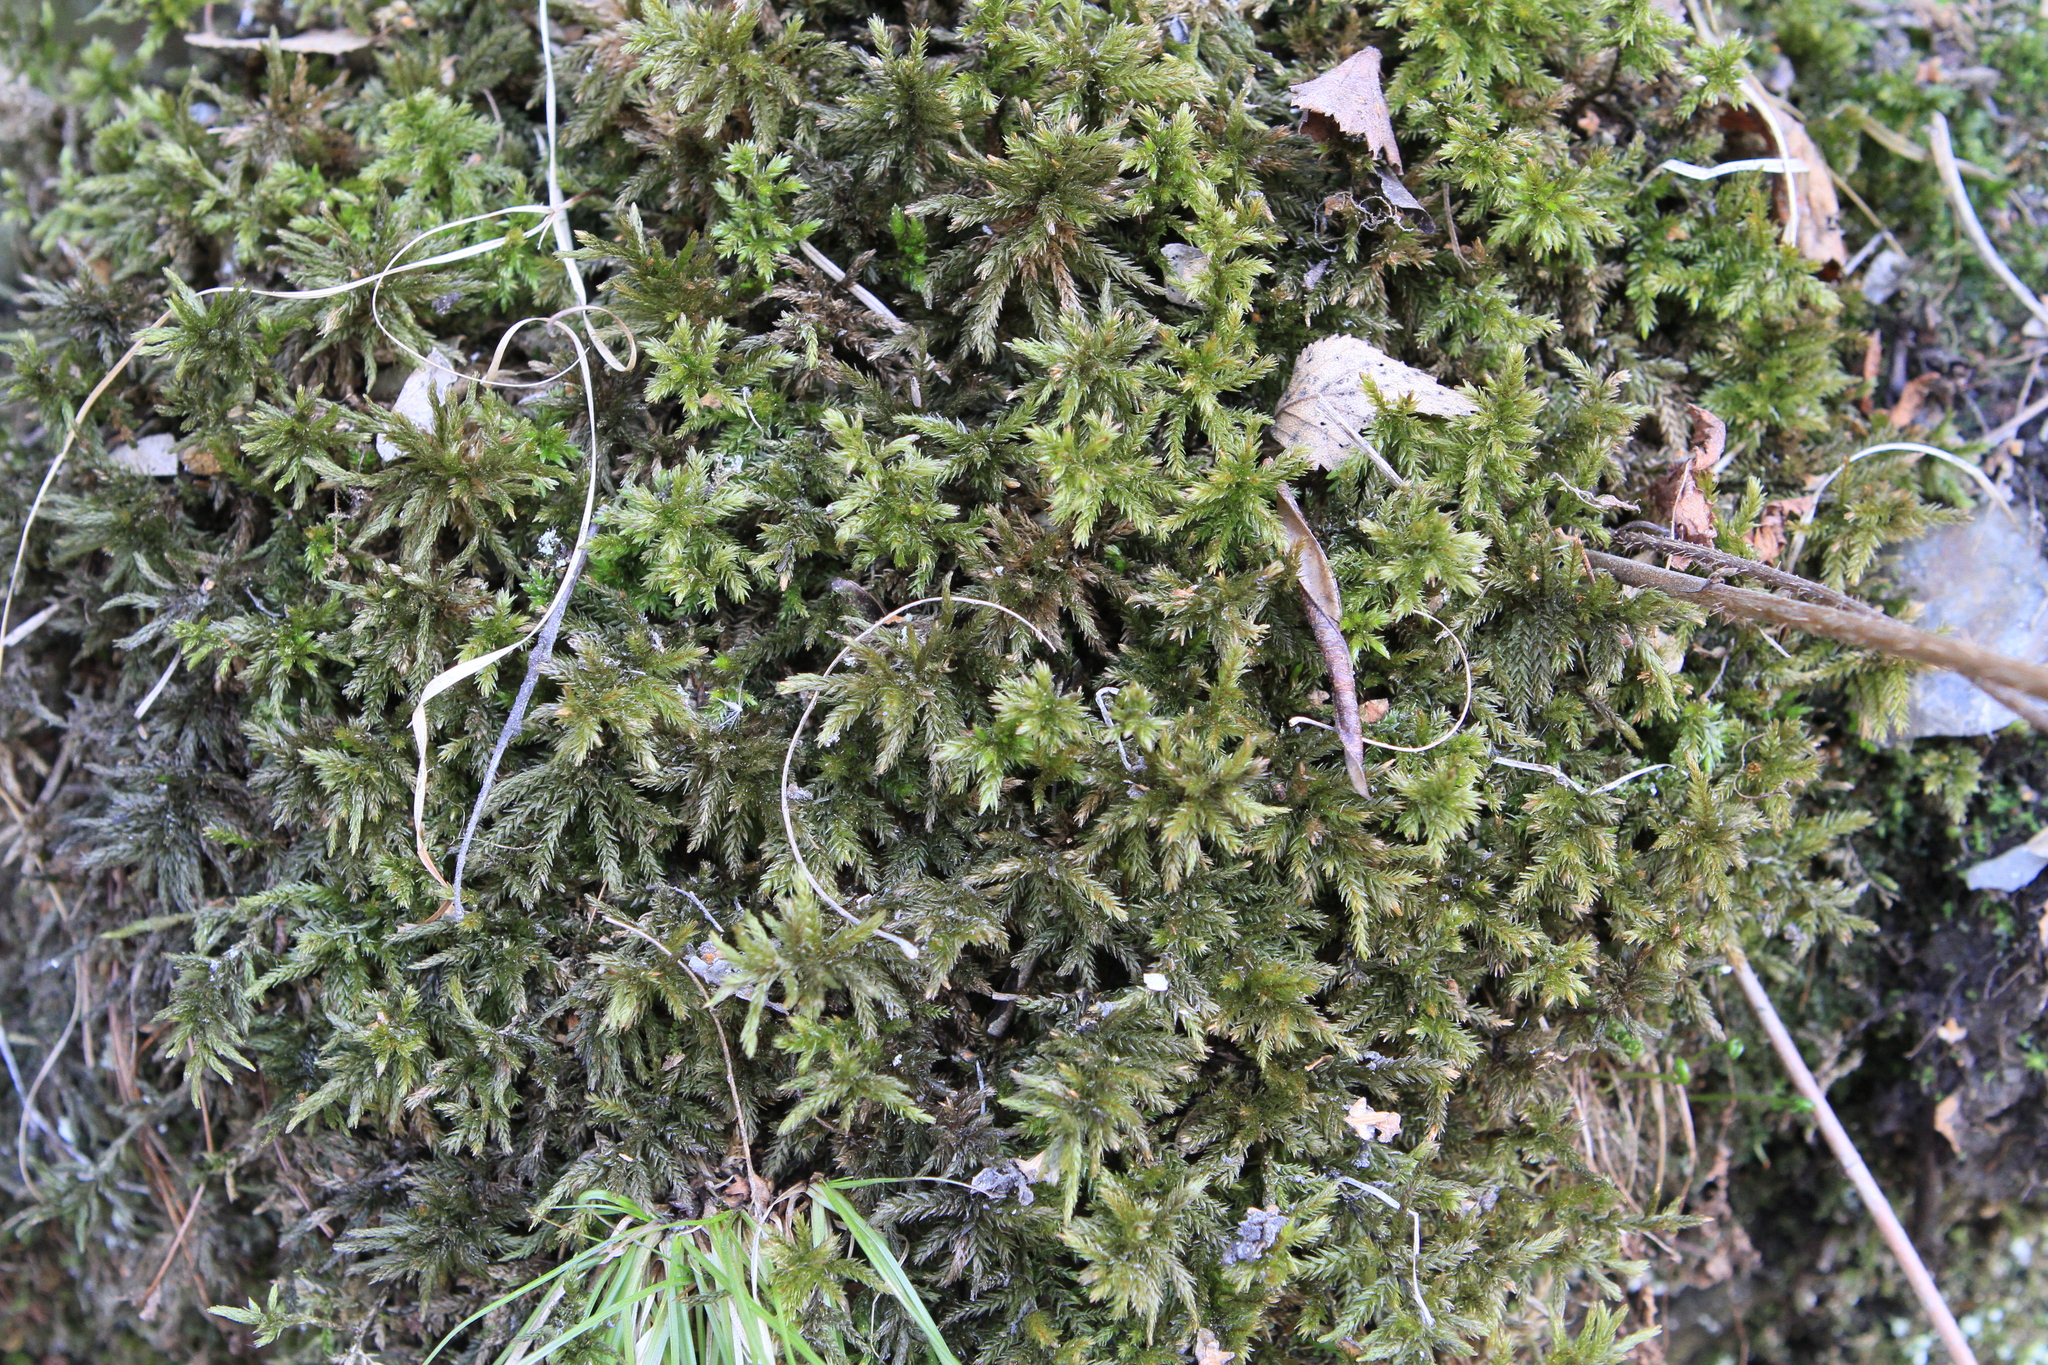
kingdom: Plantae
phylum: Bryophyta
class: Bryopsida
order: Hypnales
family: Climaciaceae
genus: Climacium
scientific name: Climacium dendroides
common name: Northern tree moss
